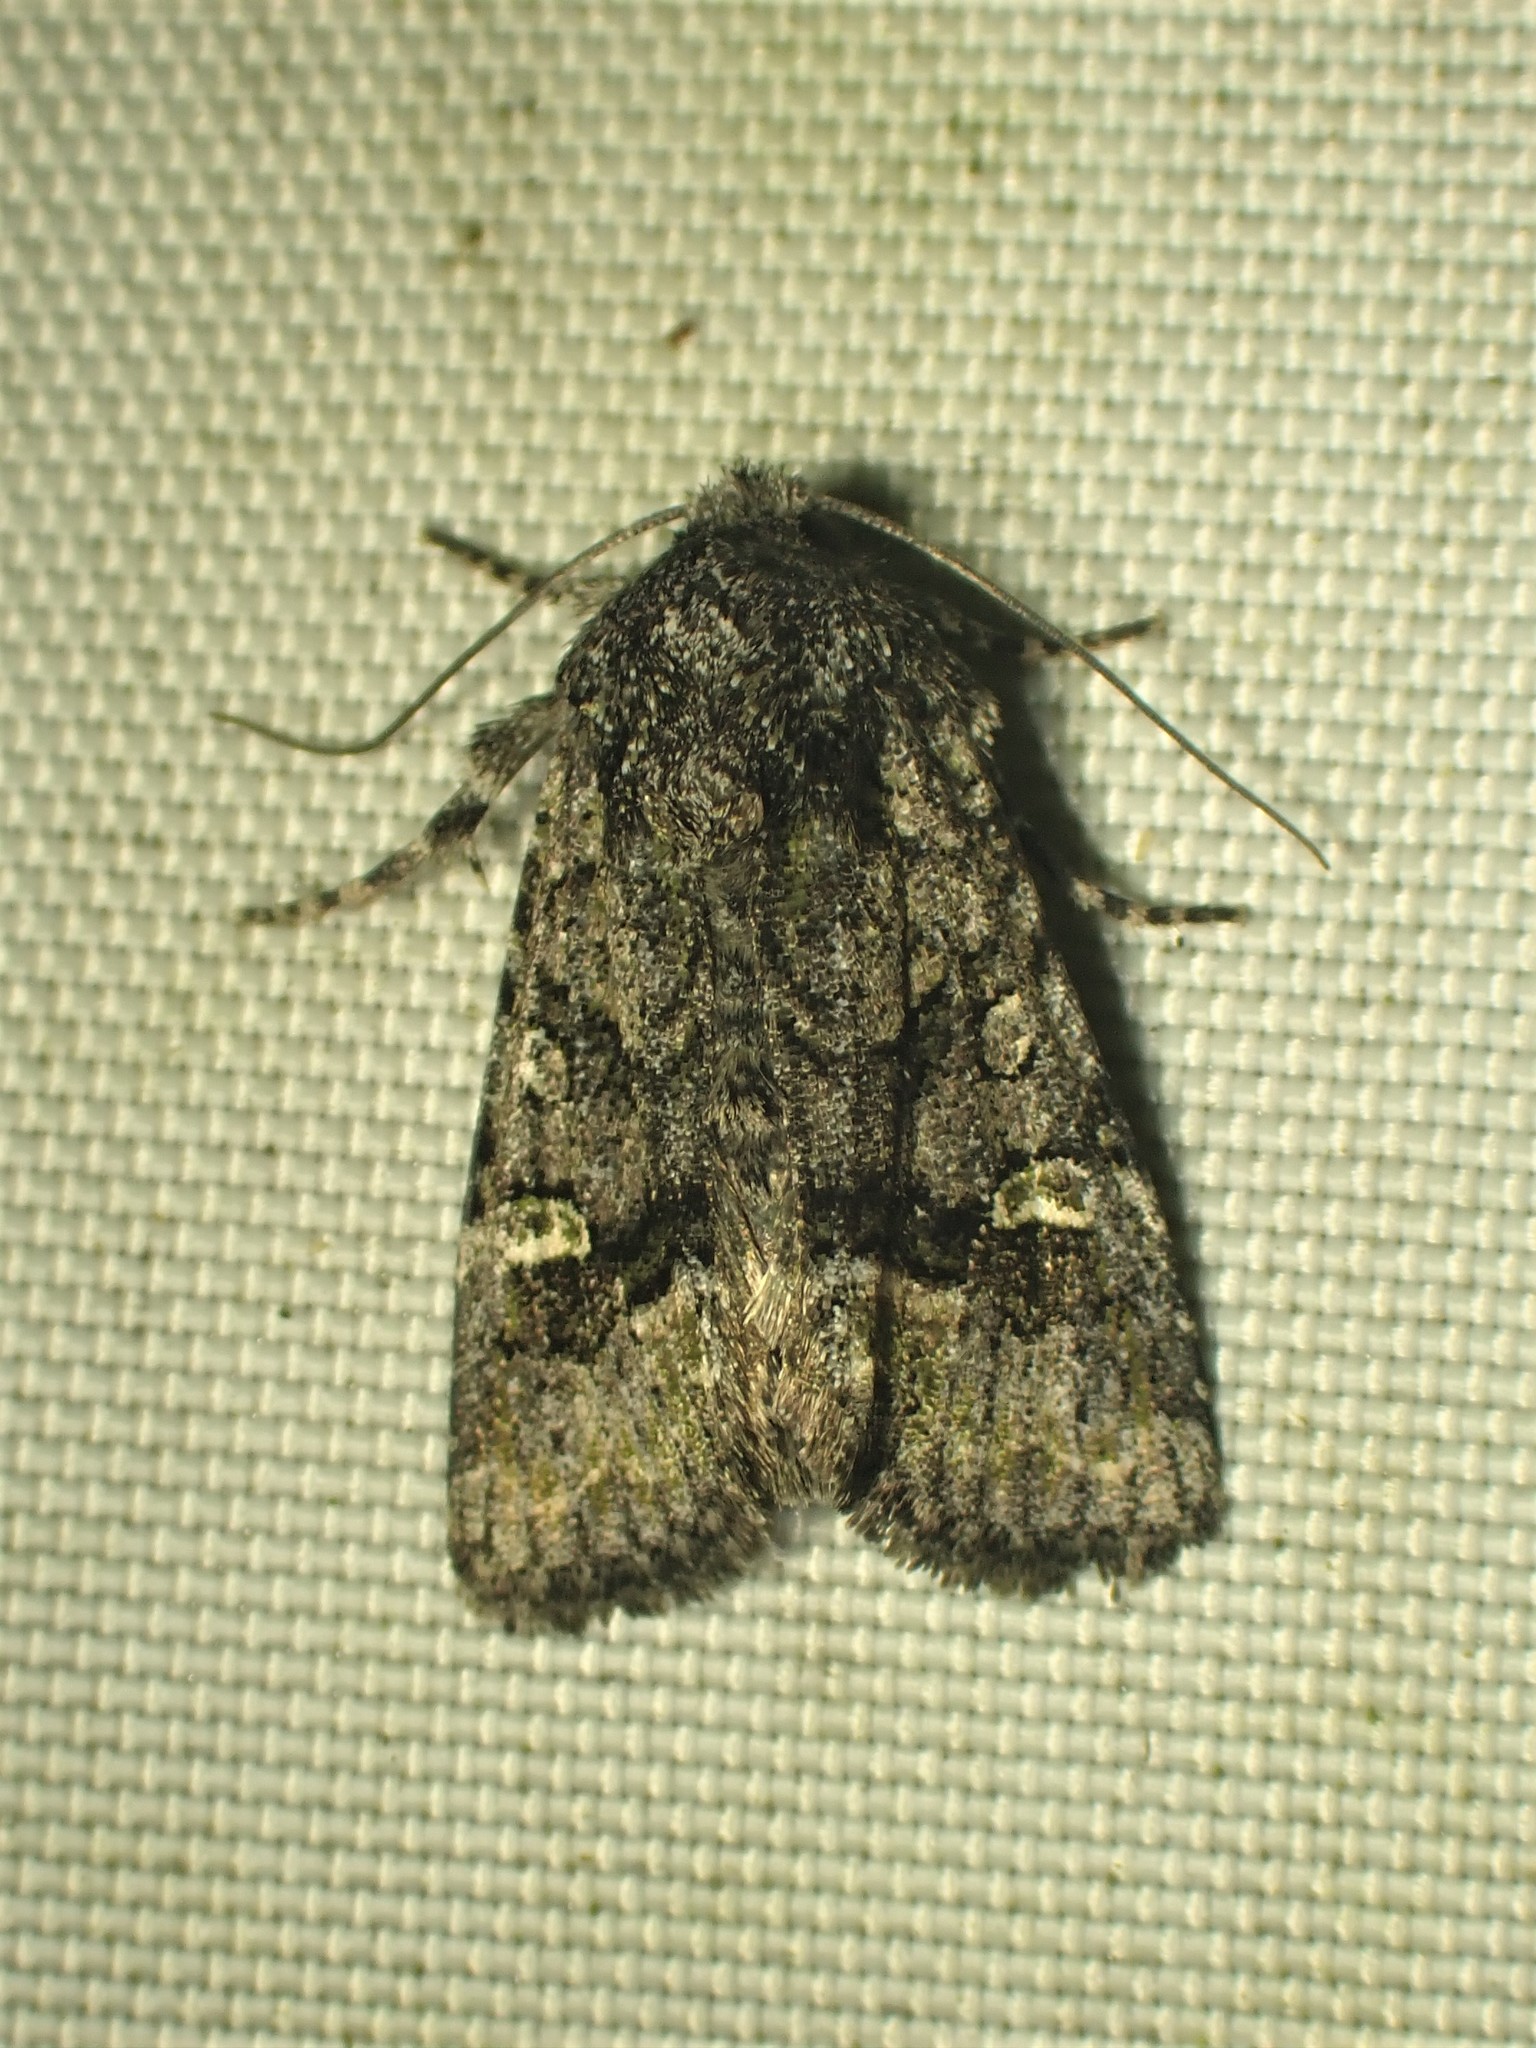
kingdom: Animalia
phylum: Arthropoda
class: Insecta
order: Lepidoptera
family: Noctuidae
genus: Lacinipolia
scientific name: Lacinipolia olivacea
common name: Olive arches moth
